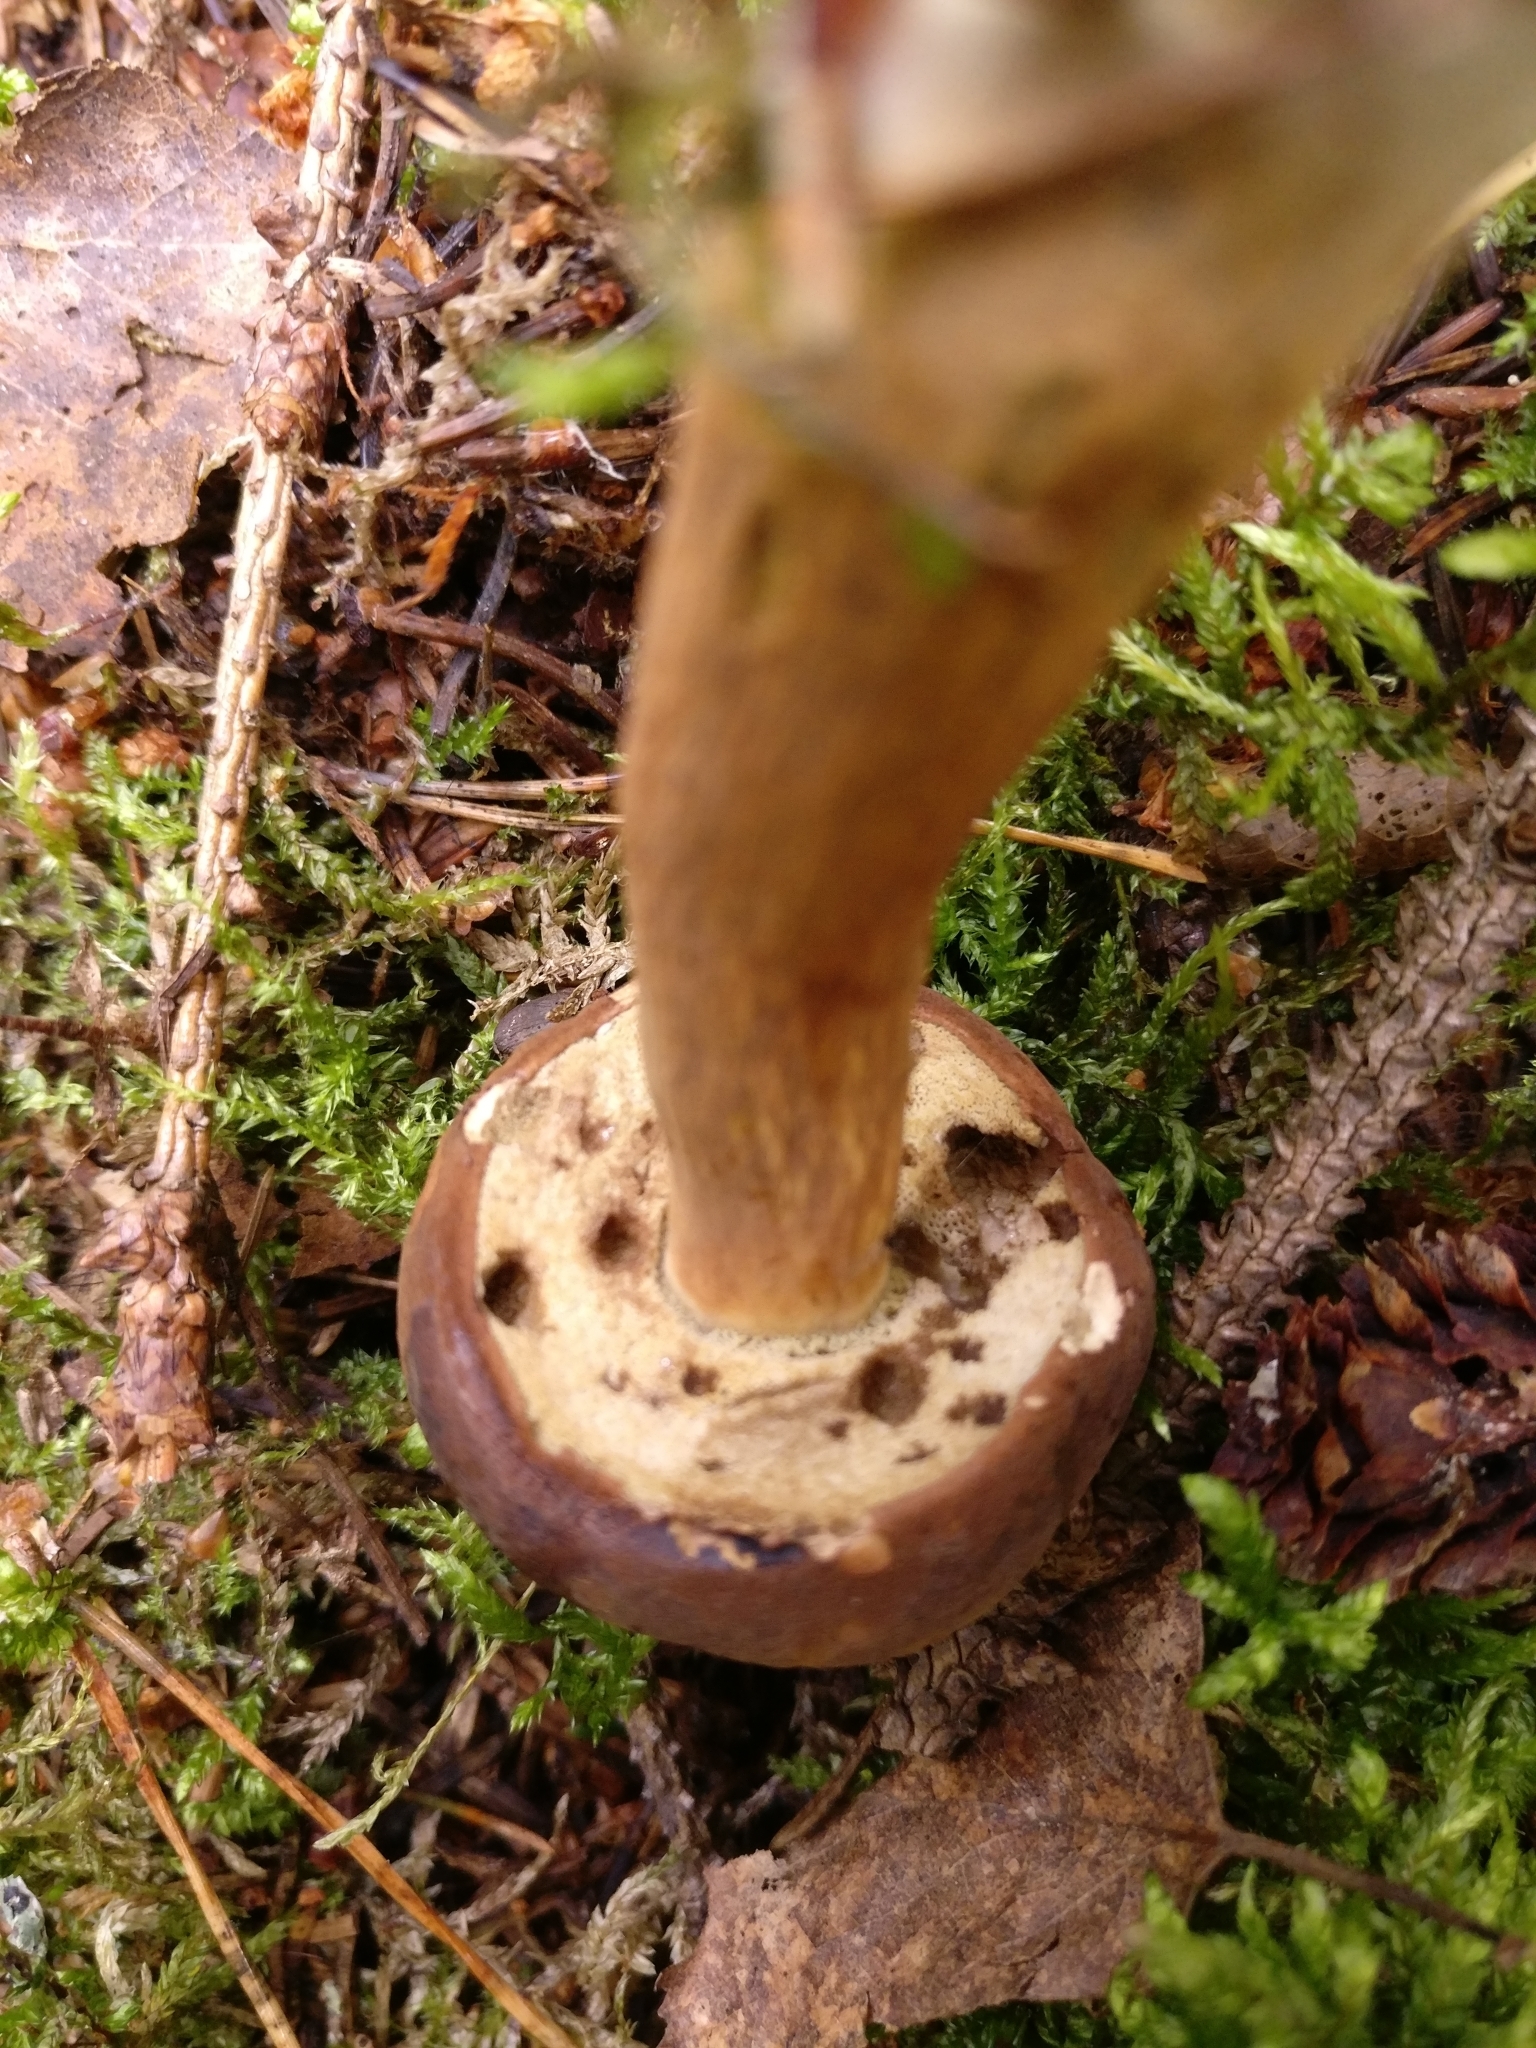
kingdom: Fungi
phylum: Basidiomycota
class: Agaricomycetes
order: Boletales
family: Boletaceae
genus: Imleria
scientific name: Imleria badia
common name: Bay bolete
